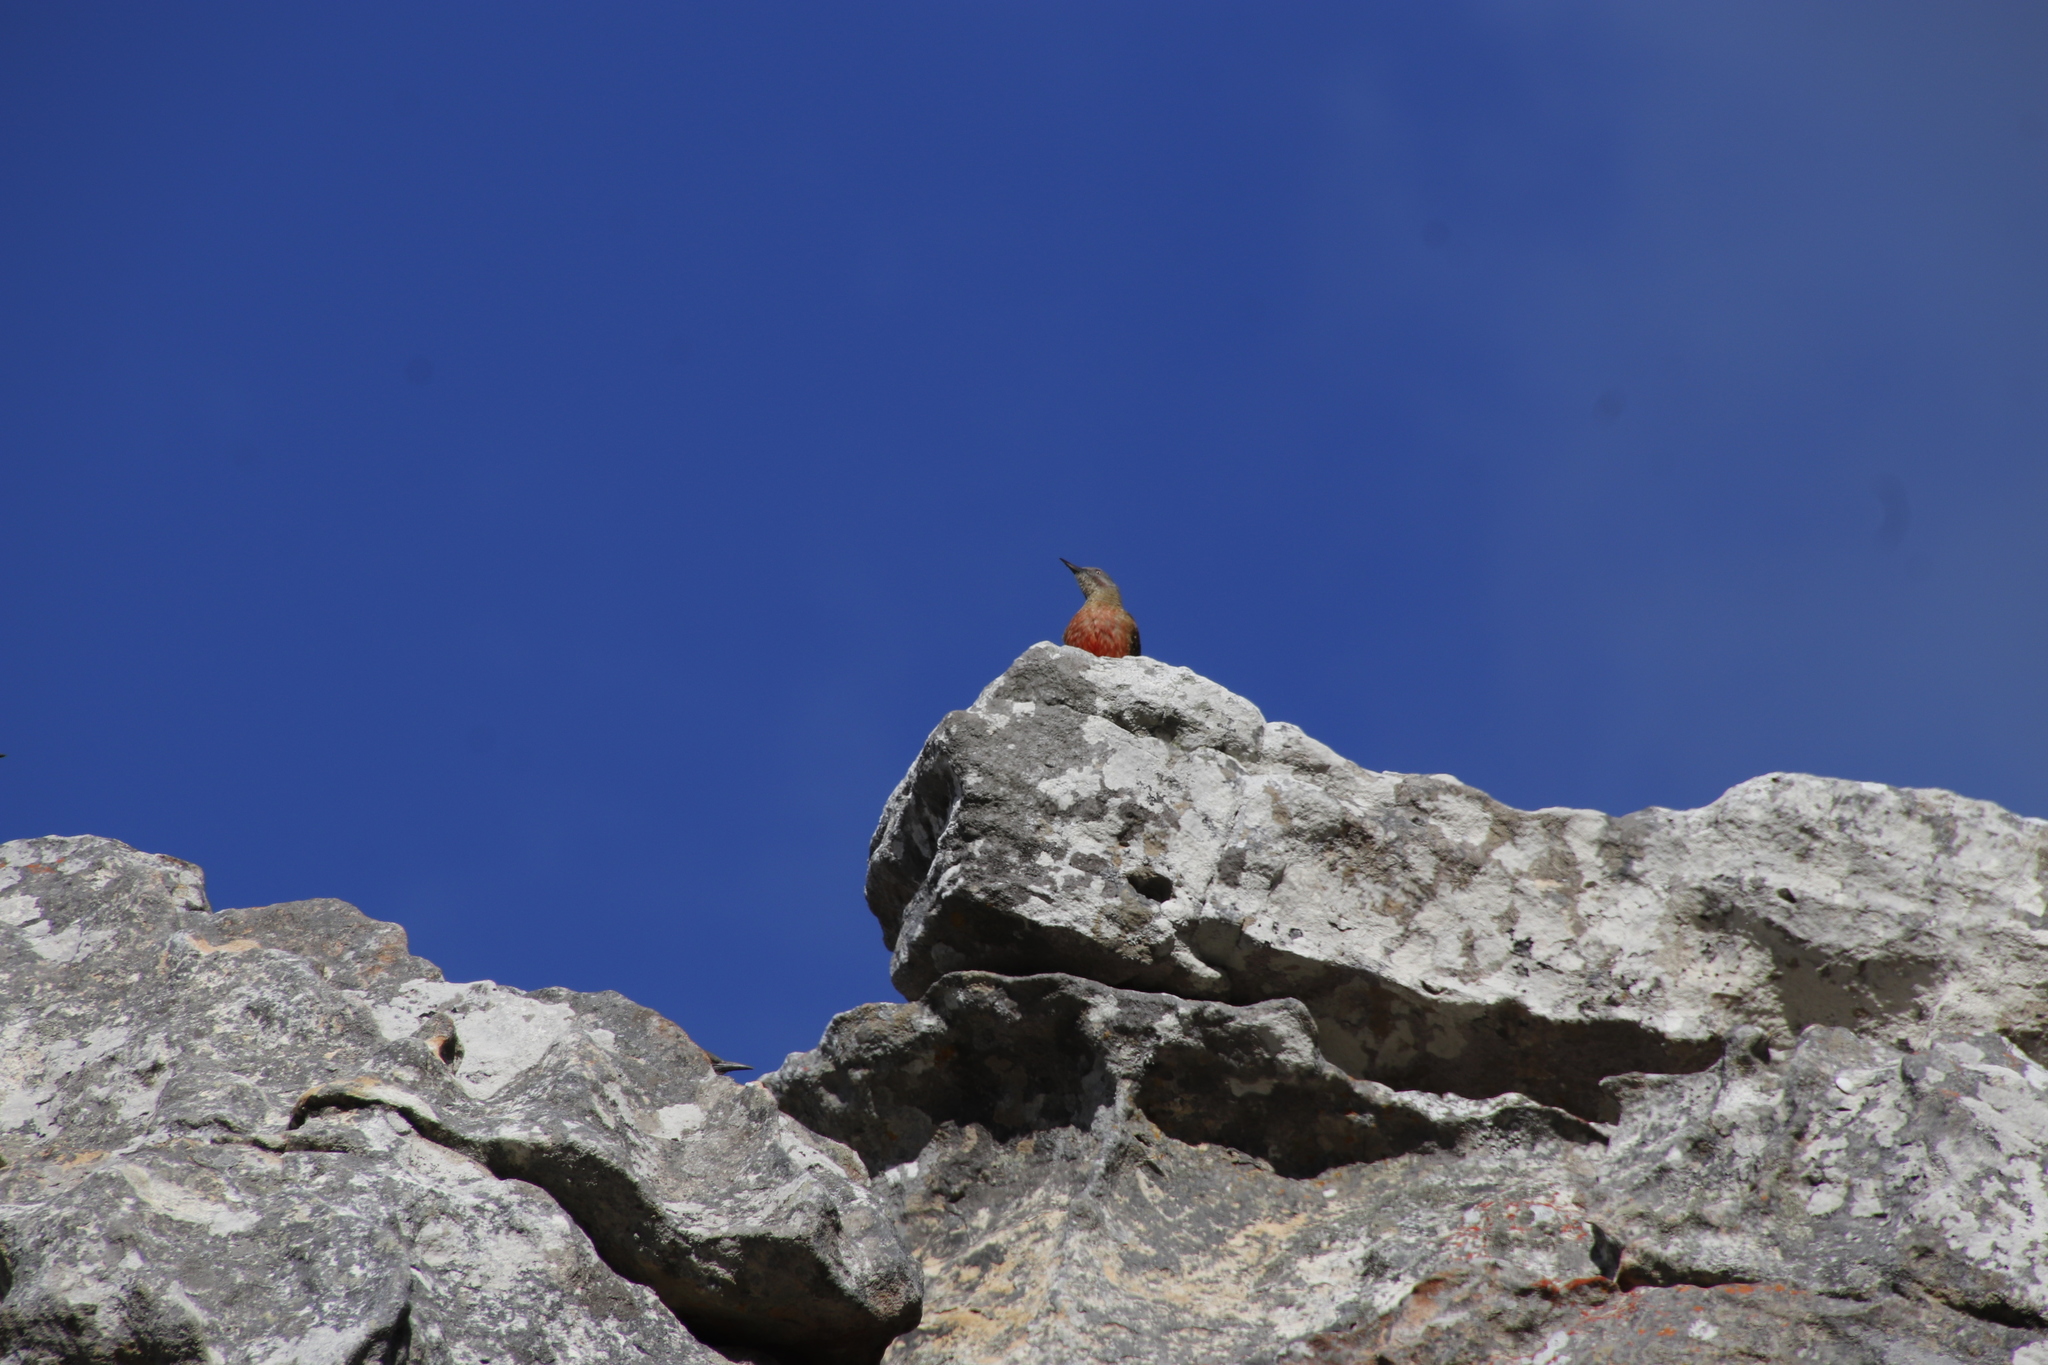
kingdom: Animalia
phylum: Chordata
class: Aves
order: Piciformes
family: Picidae
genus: Geocolaptes
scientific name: Geocolaptes olivaceus
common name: Ground woodpecker
